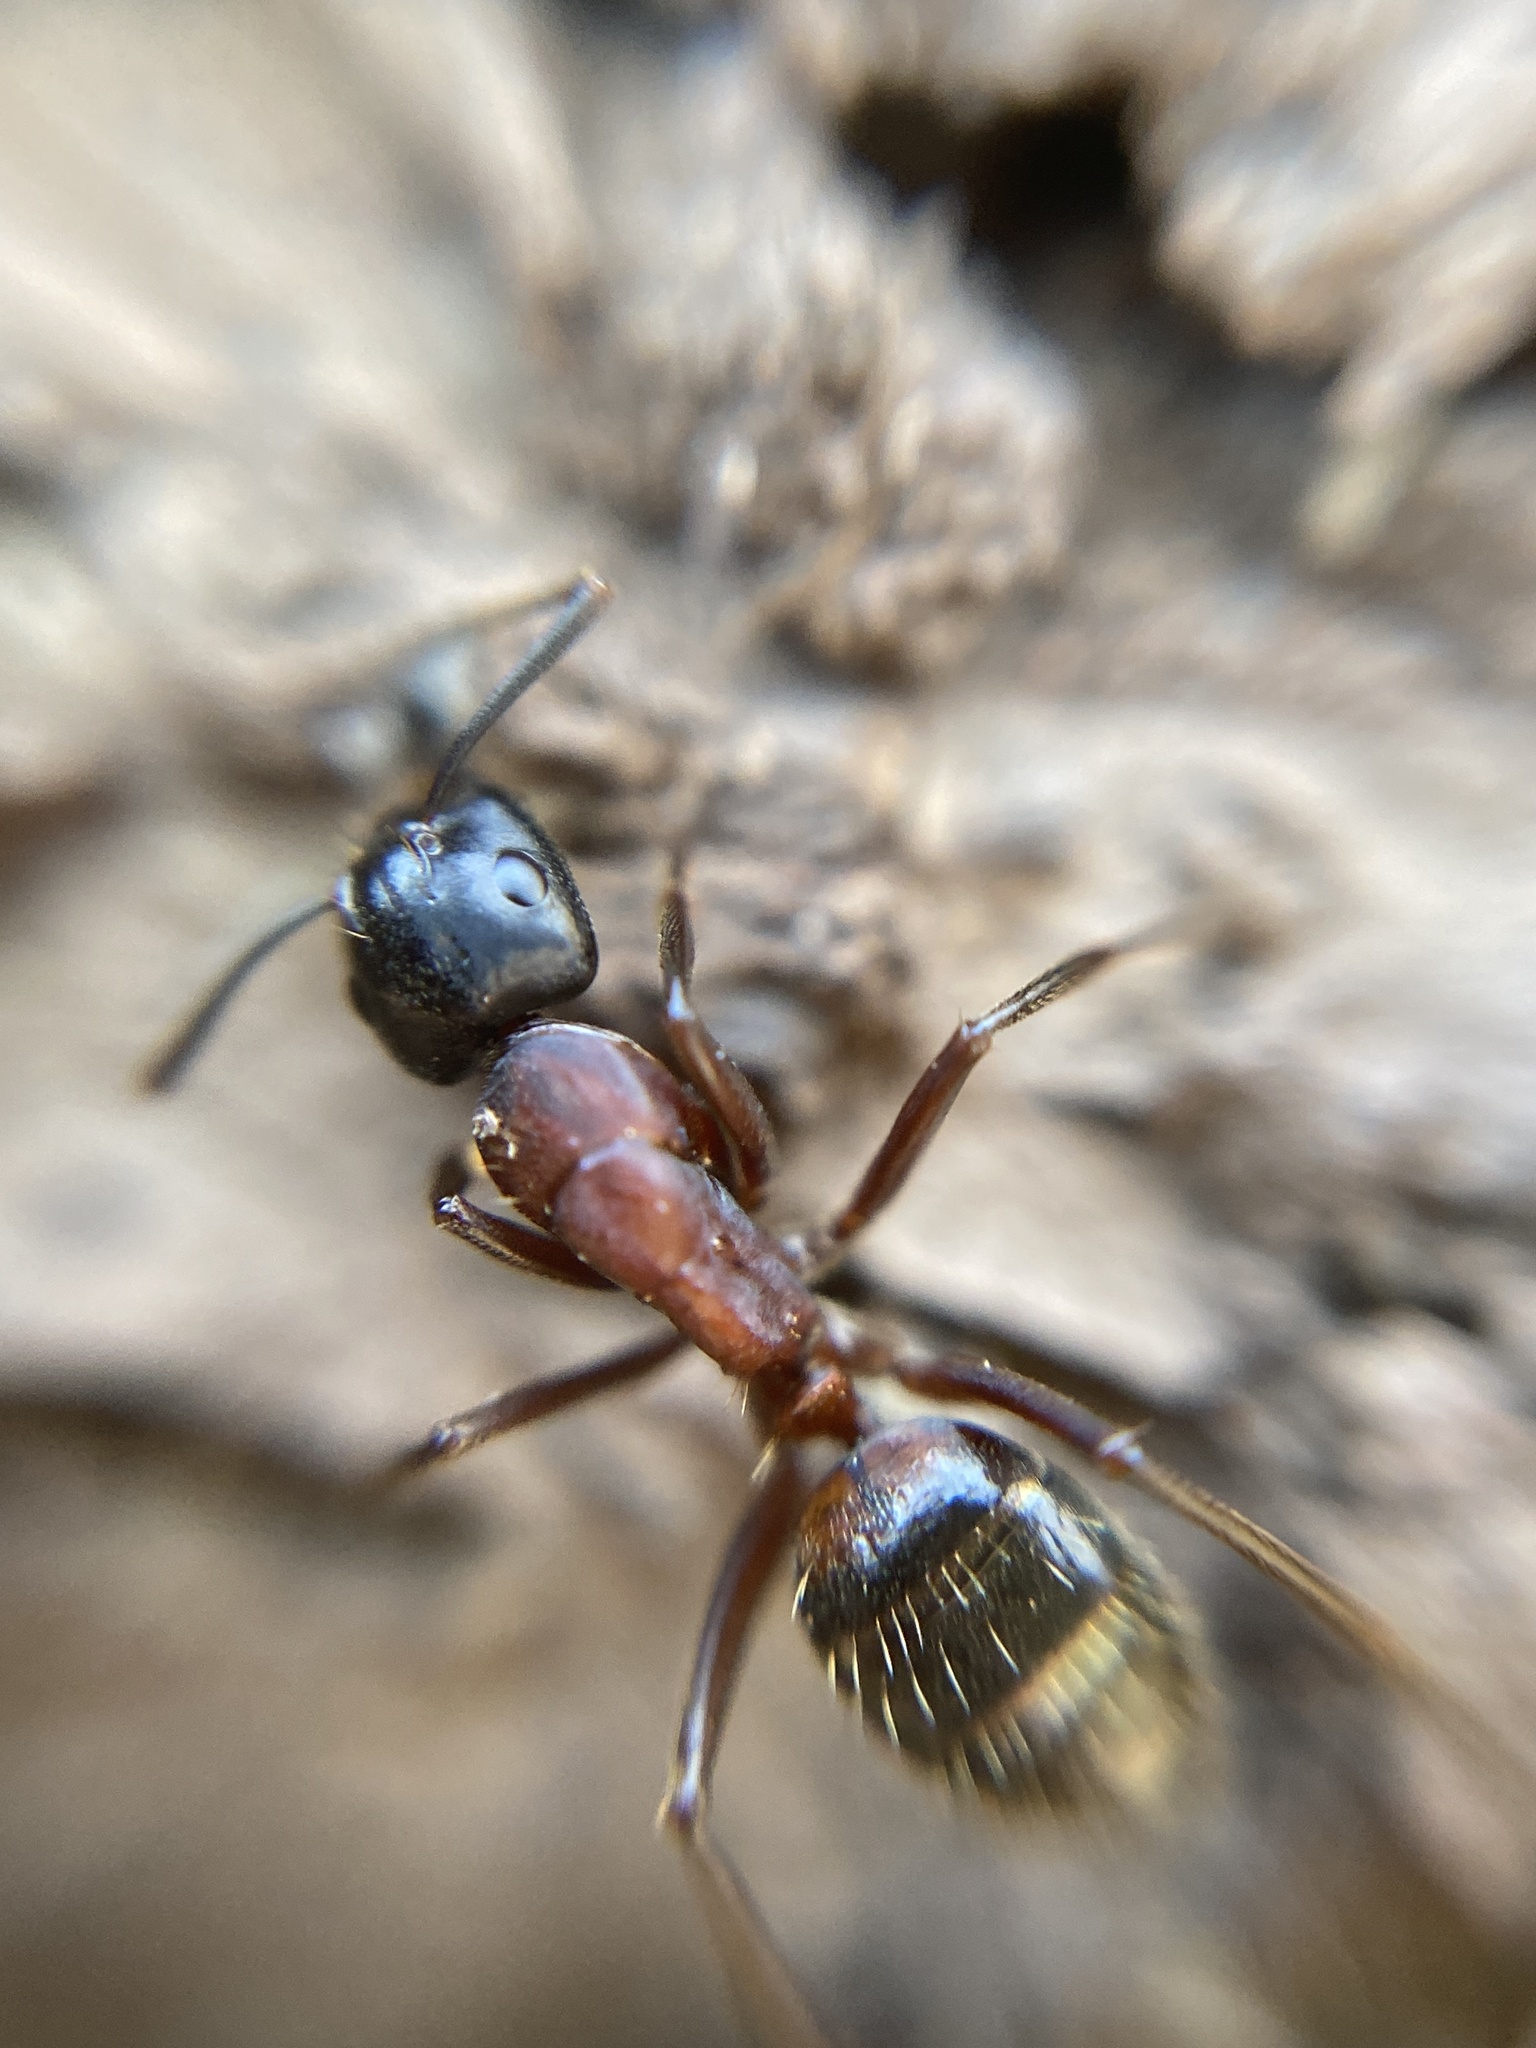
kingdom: Animalia
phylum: Arthropoda
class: Insecta
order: Hymenoptera
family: Formicidae
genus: Camponotus
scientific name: Camponotus ligniperdus
